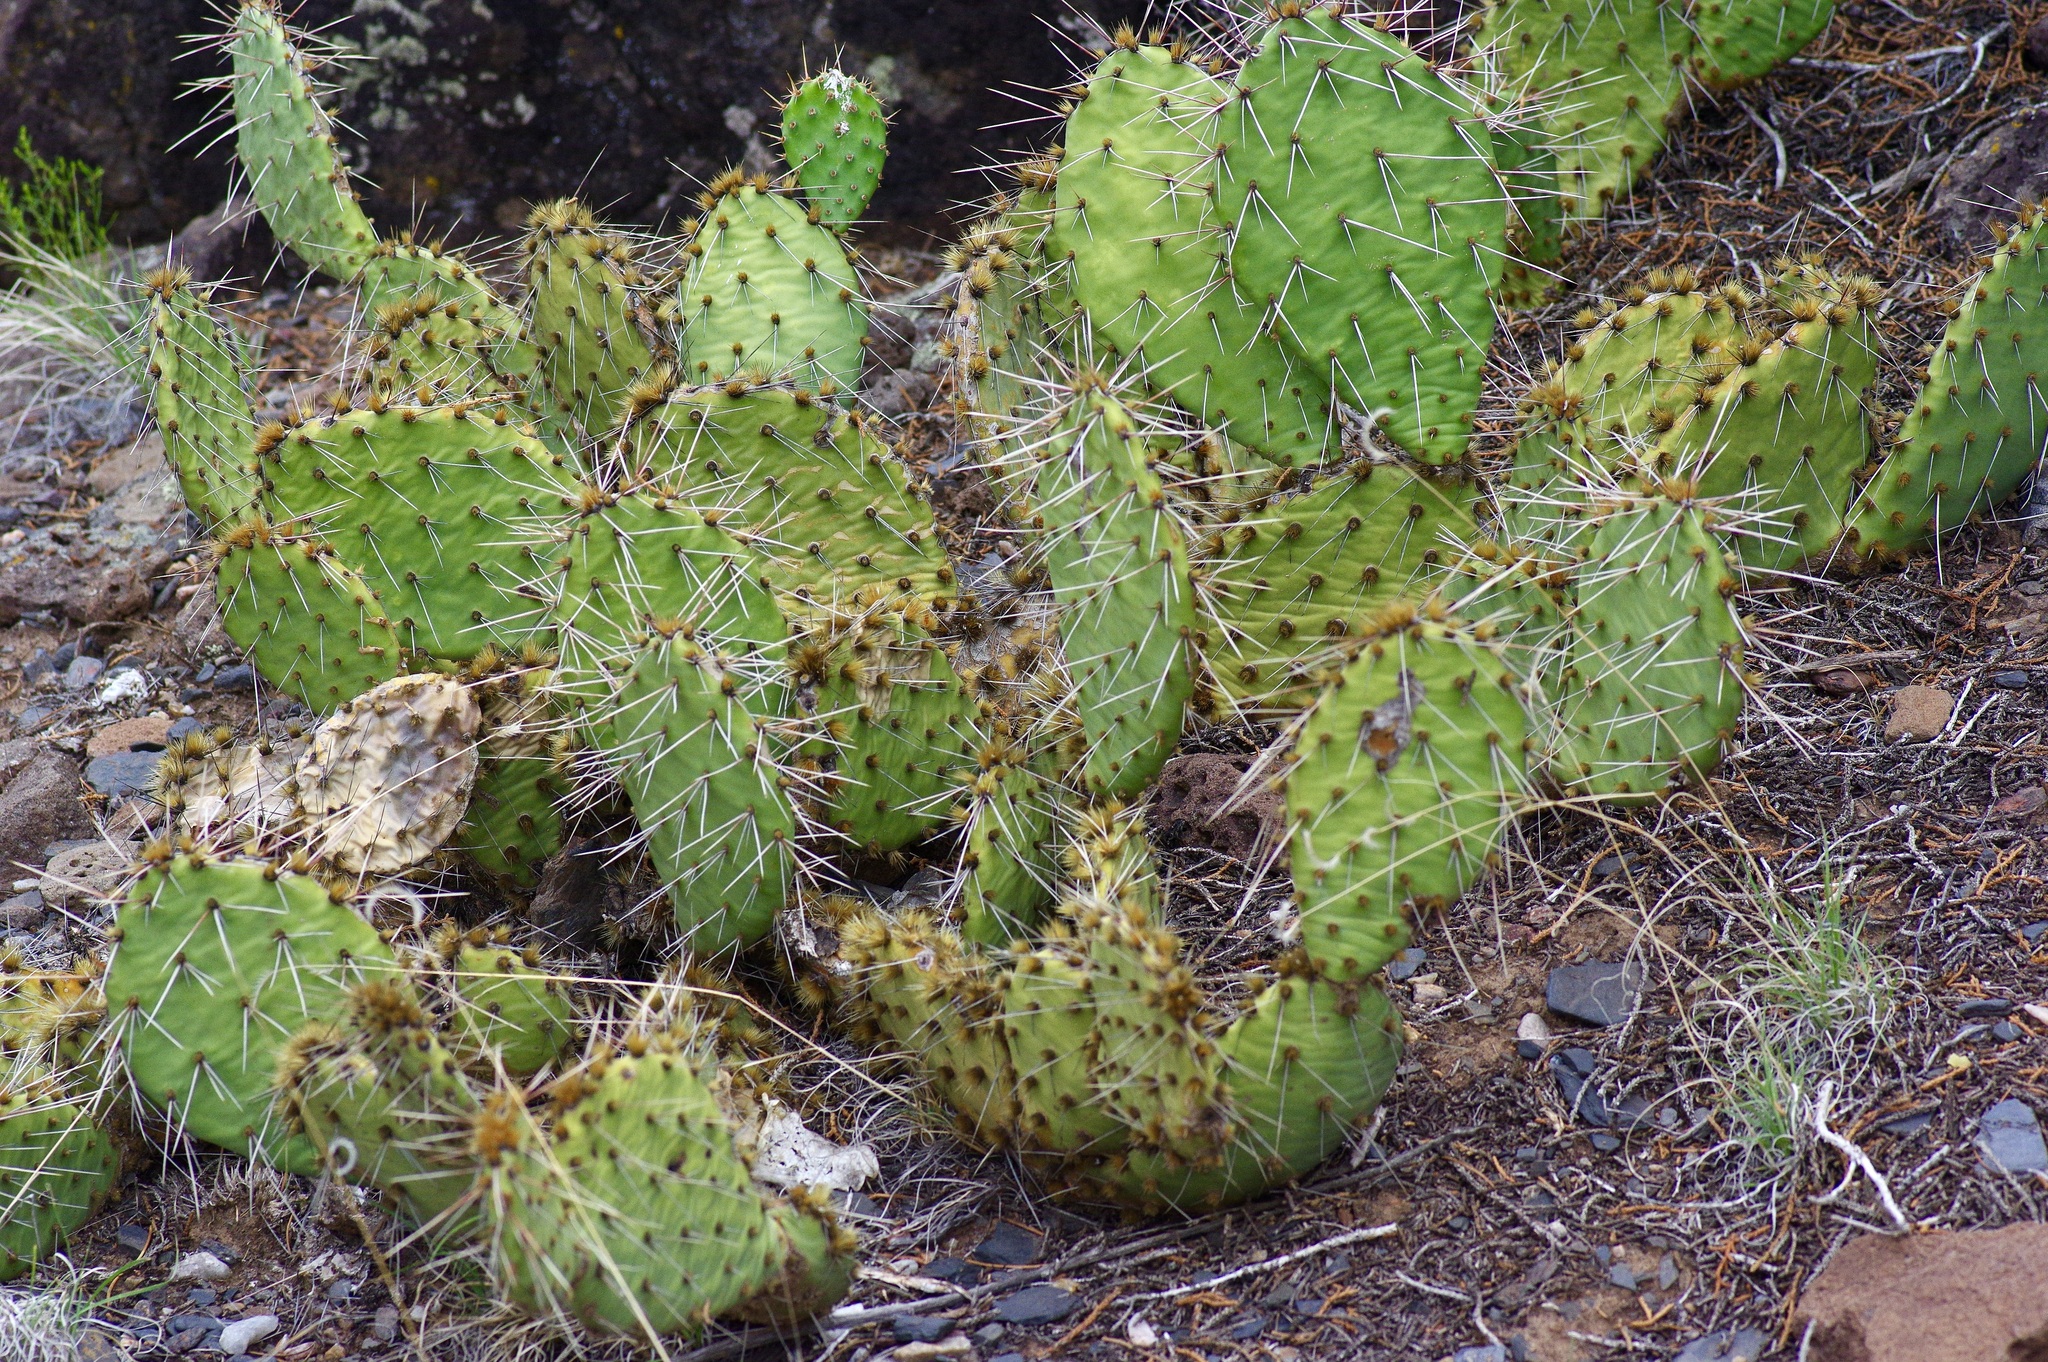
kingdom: Plantae
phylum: Tracheophyta
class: Magnoliopsida
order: Caryophyllales
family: Cactaceae
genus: Opuntia
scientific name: Opuntia macrorhiza
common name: Grassland pricklypear
